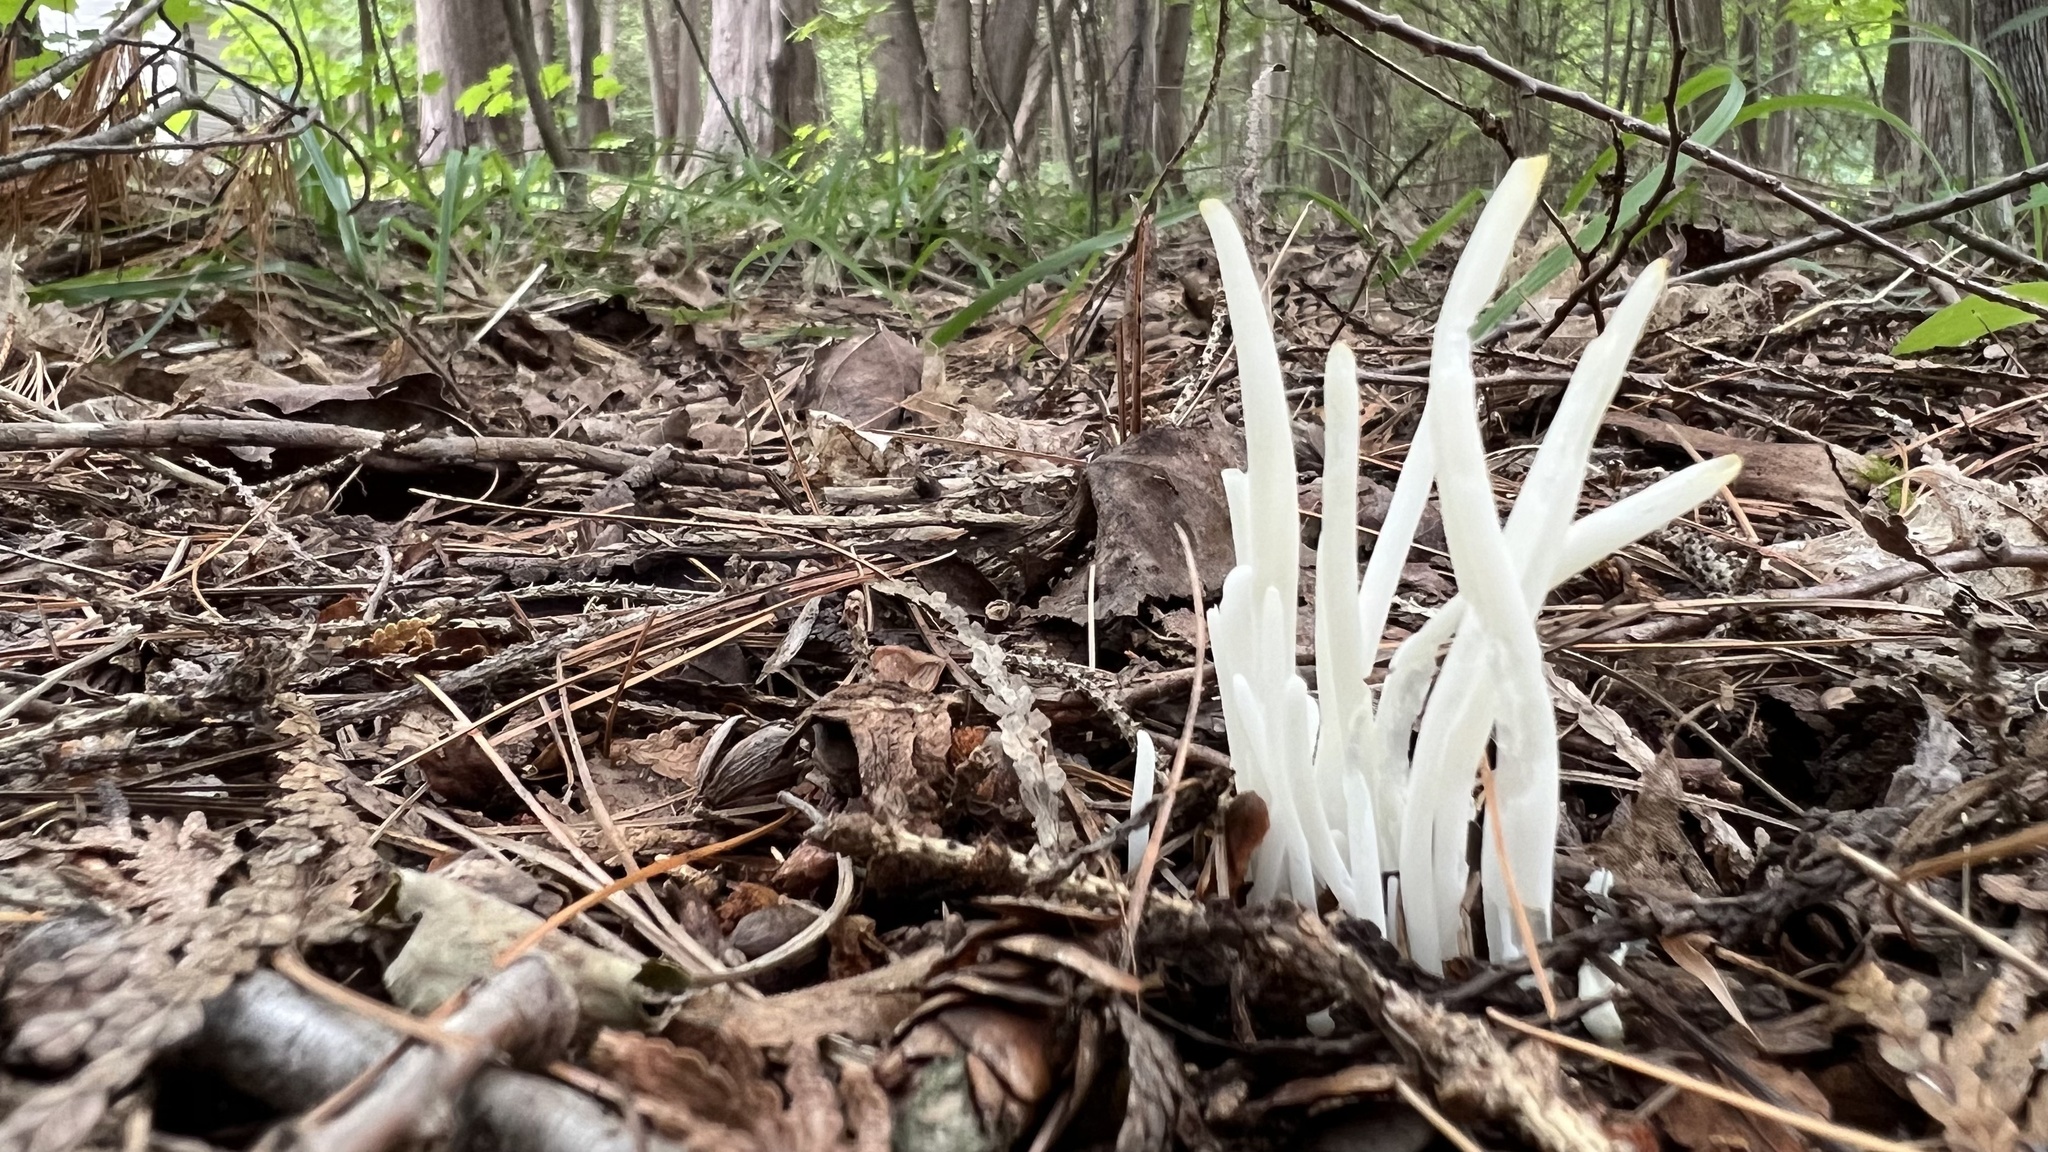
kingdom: Fungi
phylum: Basidiomycota
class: Agaricomycetes
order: Agaricales
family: Clavariaceae
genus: Clavaria
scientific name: Clavaria fragilis
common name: White spindles
